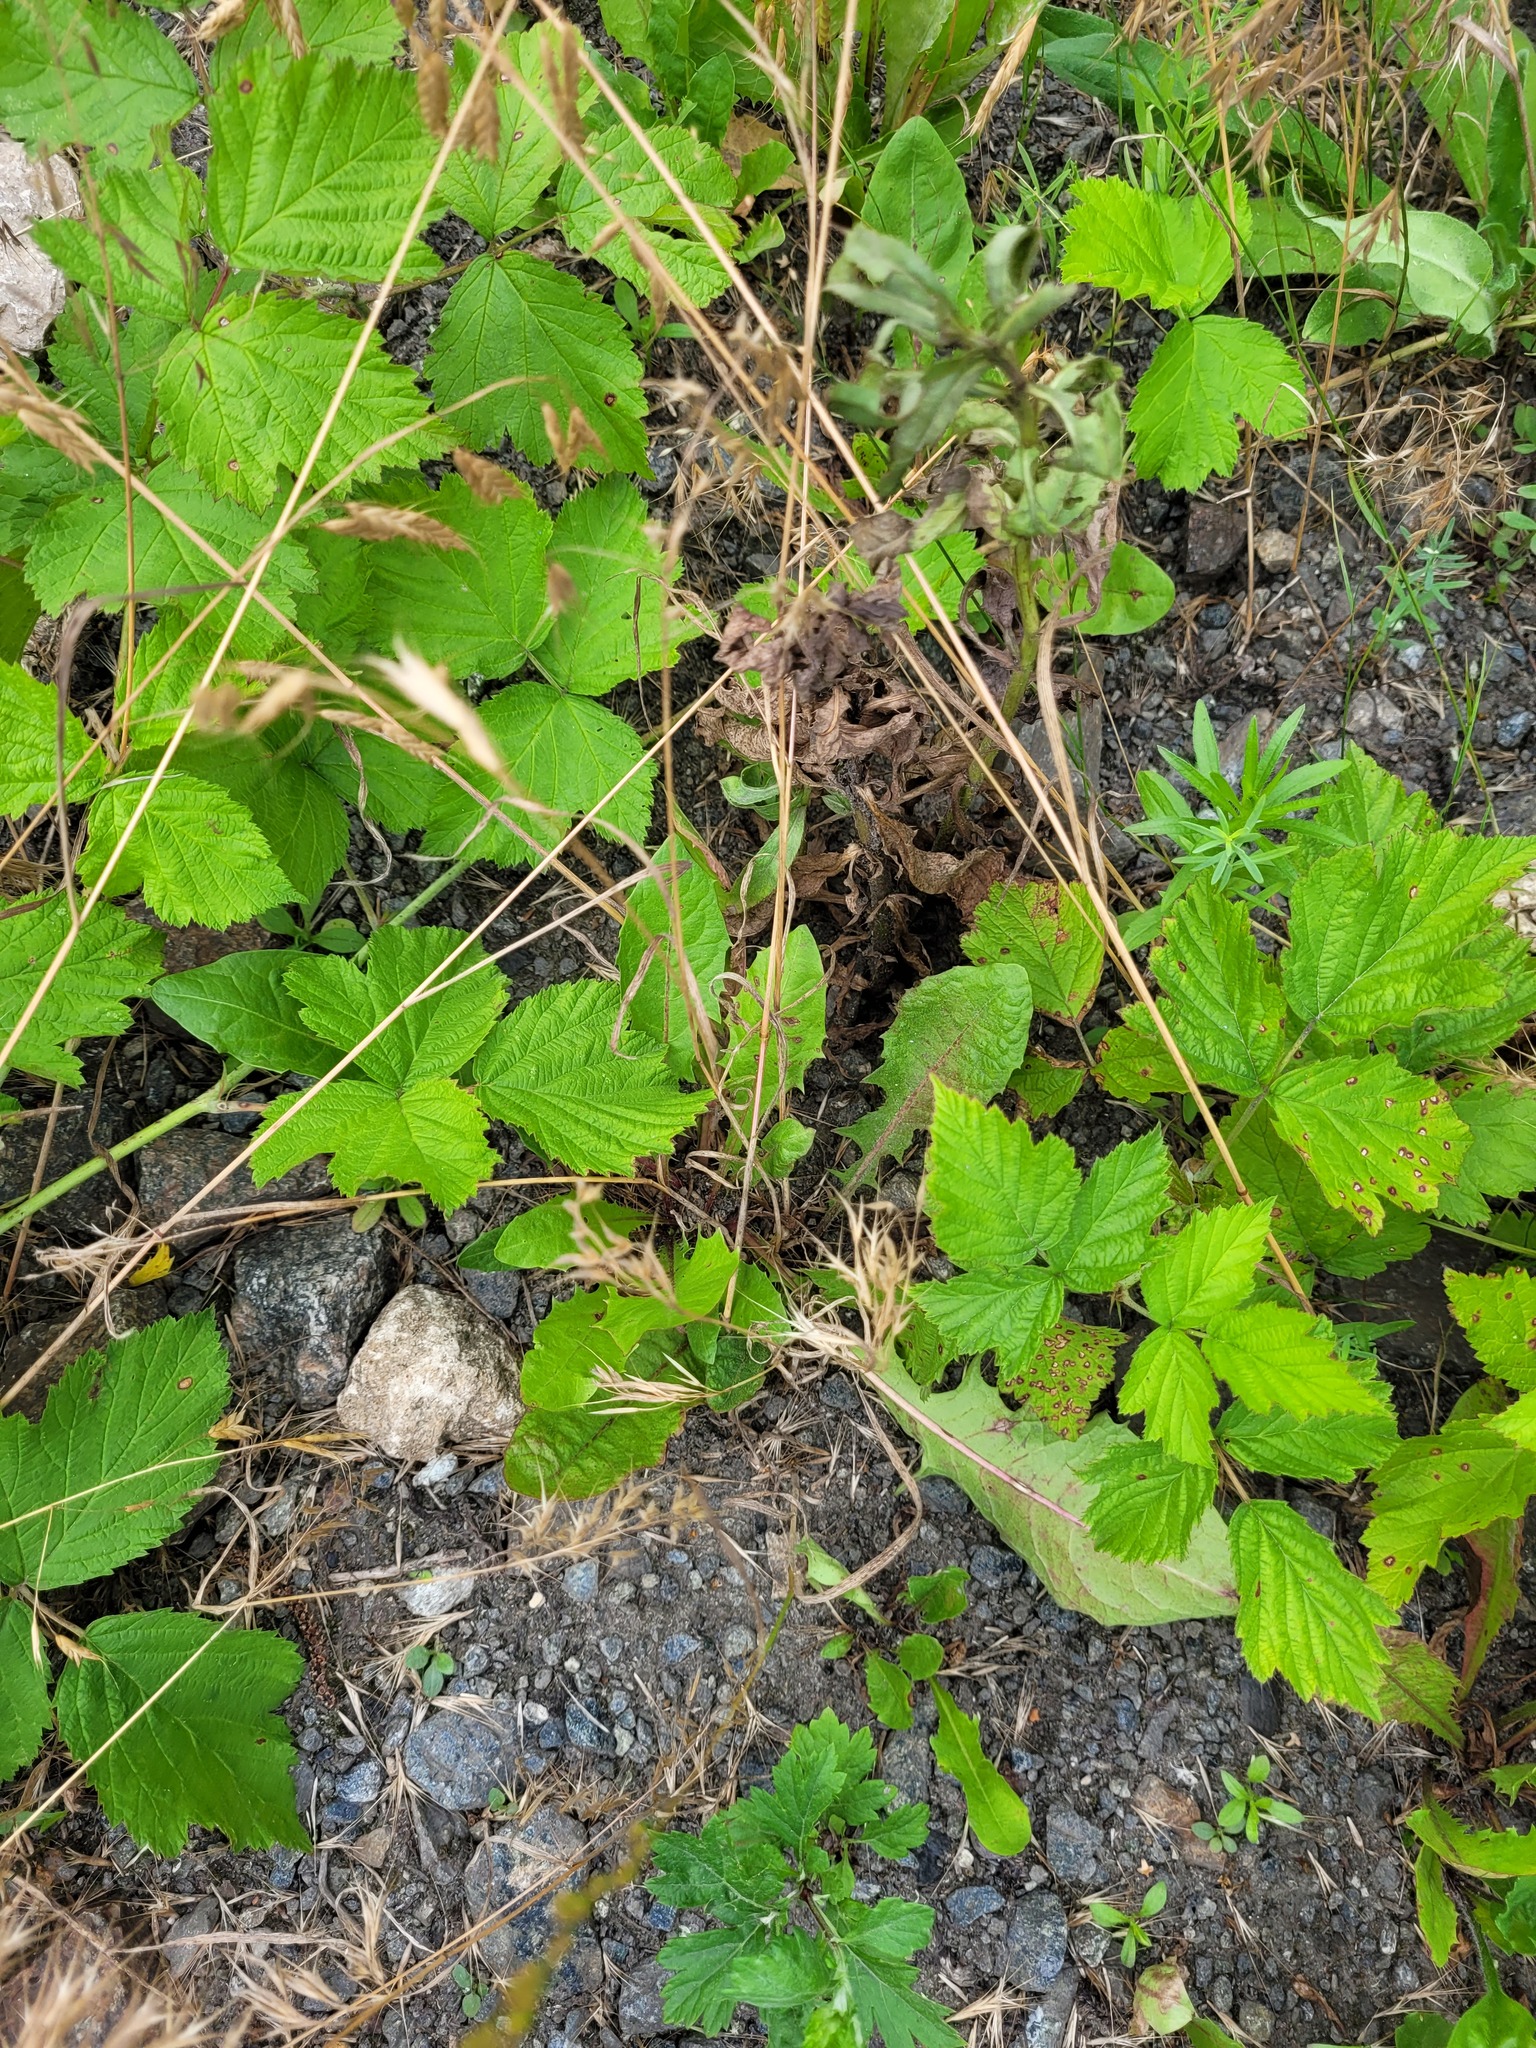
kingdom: Plantae
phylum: Tracheophyta
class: Magnoliopsida
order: Asterales
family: Asteraceae
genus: Taraxacum
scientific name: Taraxacum officinale
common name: Common dandelion
